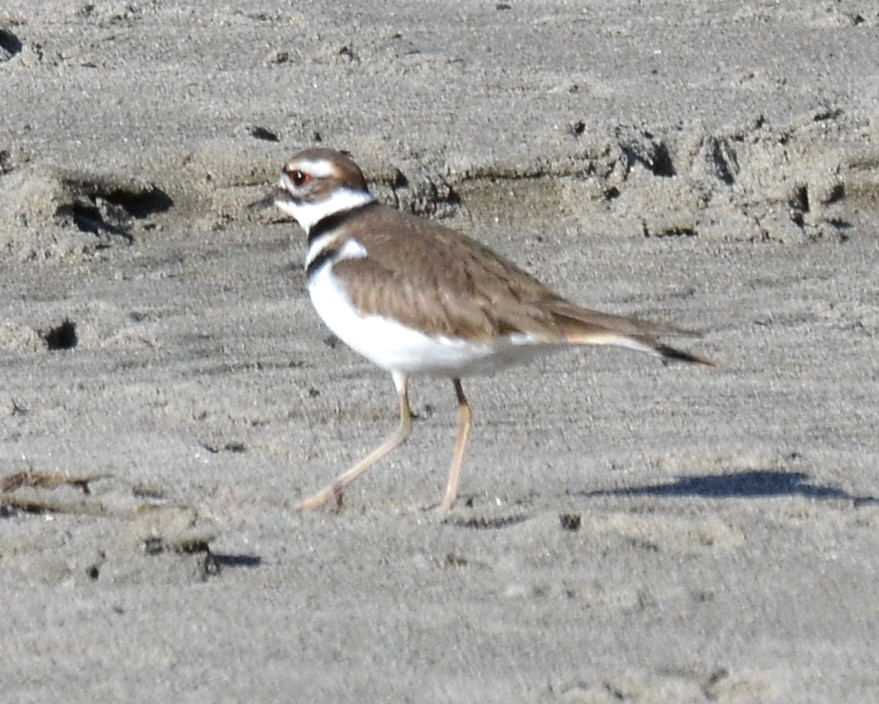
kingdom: Animalia
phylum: Chordata
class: Aves
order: Charadriiformes
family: Charadriidae
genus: Charadrius
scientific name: Charadrius vociferus
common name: Killdeer
